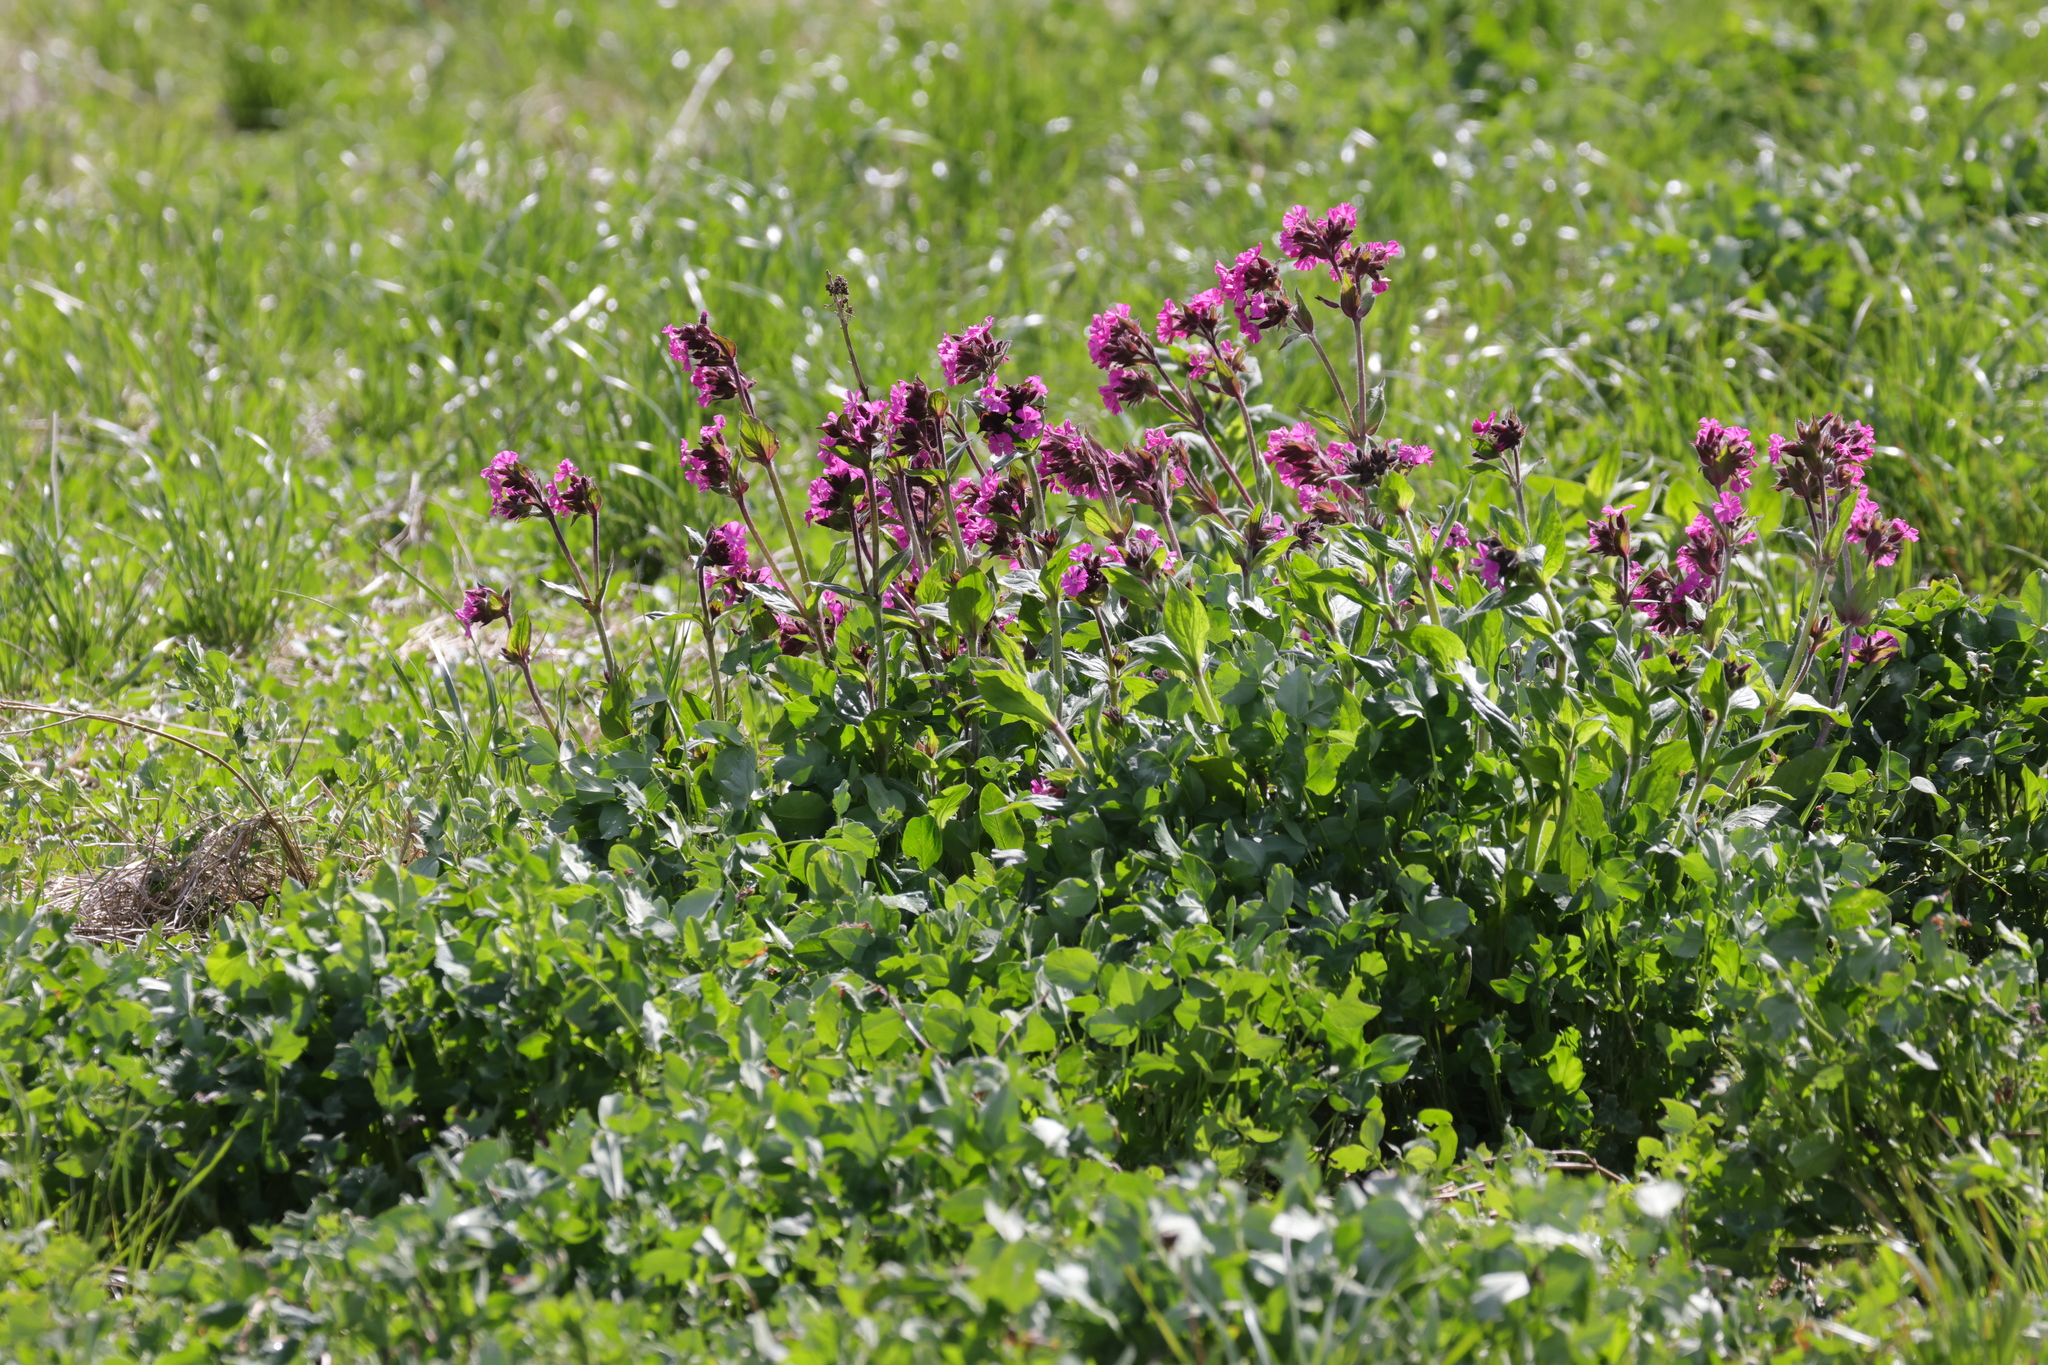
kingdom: Plantae
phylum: Tracheophyta
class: Magnoliopsida
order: Caryophyllales
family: Caryophyllaceae
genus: Silene
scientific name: Silene dioica
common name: Red campion
